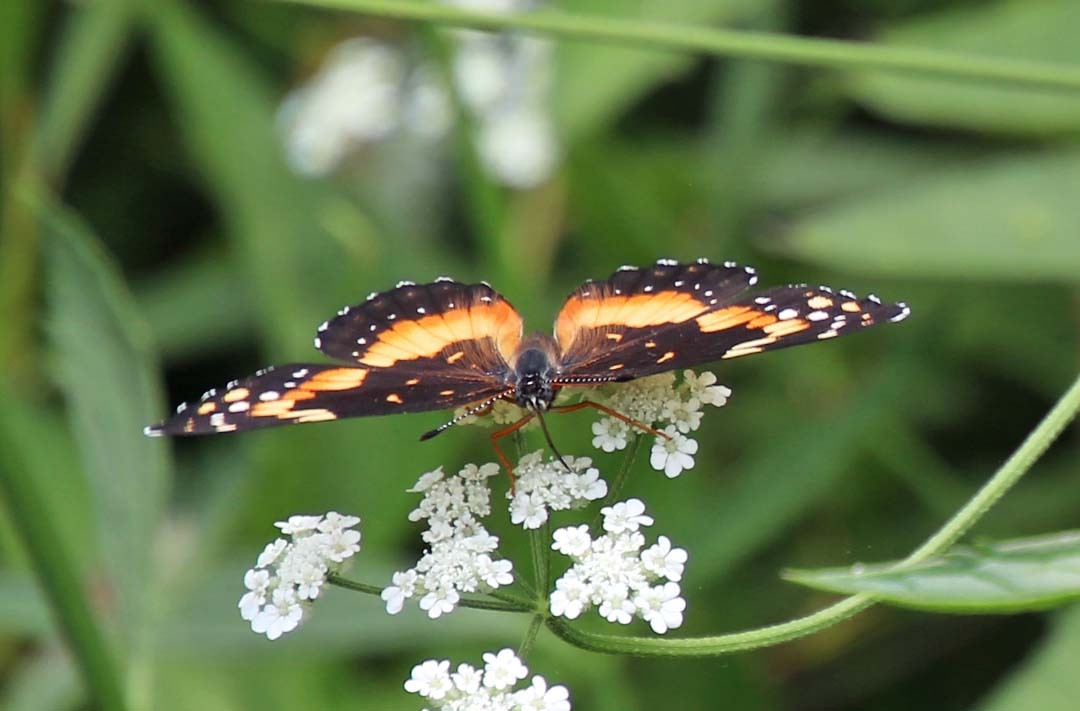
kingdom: Animalia
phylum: Arthropoda
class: Insecta
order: Lepidoptera
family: Nymphalidae
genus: Chlosyne
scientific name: Chlosyne lacinia
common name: Bordered patch
